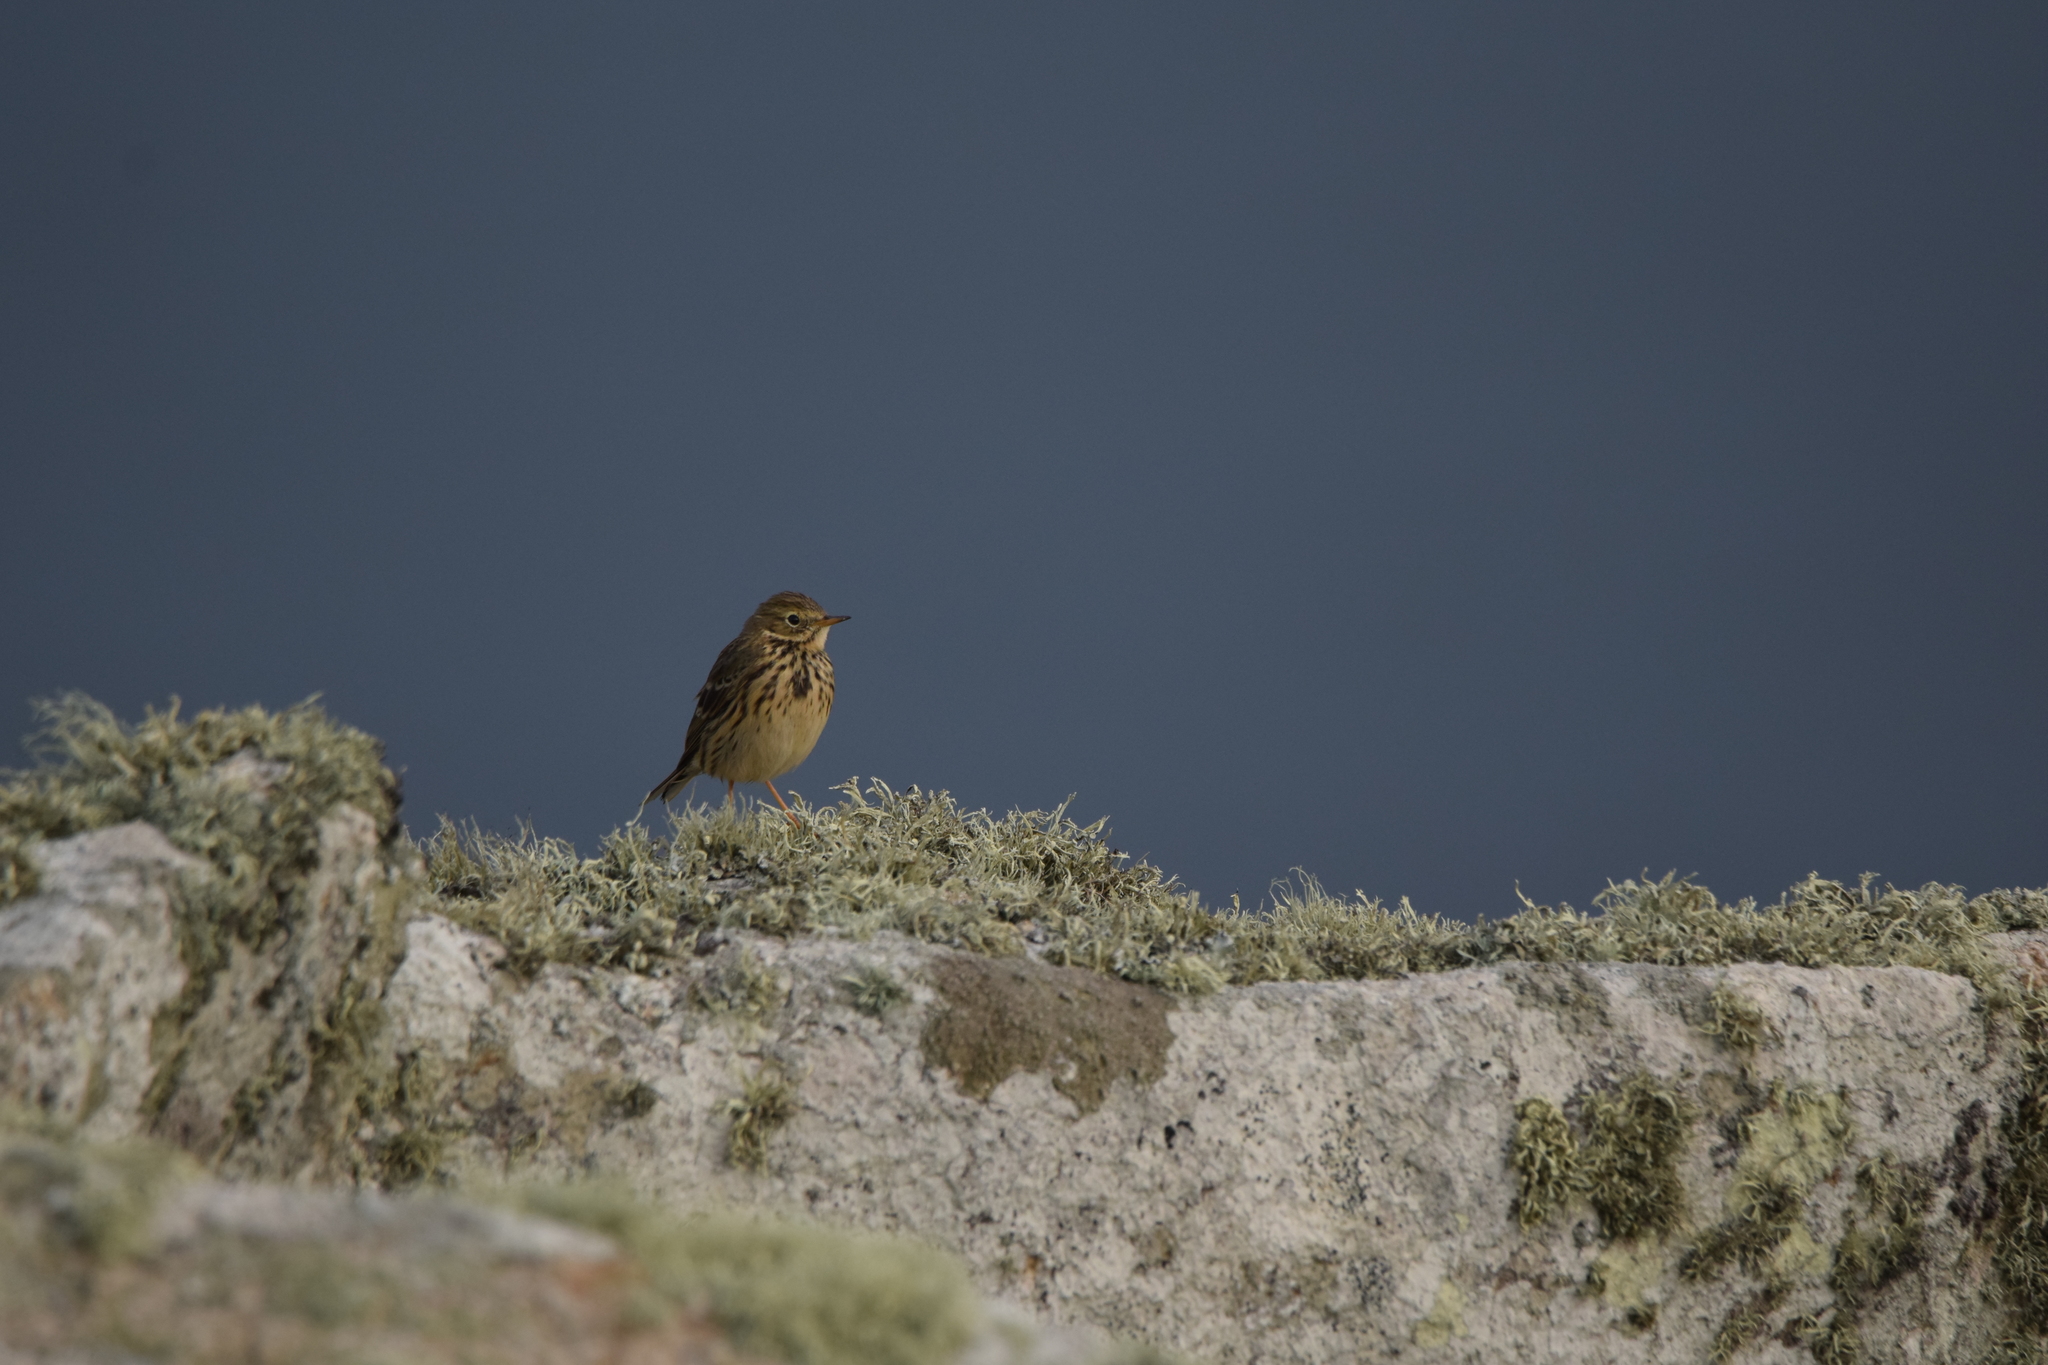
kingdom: Animalia
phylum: Chordata
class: Aves
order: Passeriformes
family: Motacillidae
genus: Anthus
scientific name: Anthus pratensis
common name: Meadow pipit
